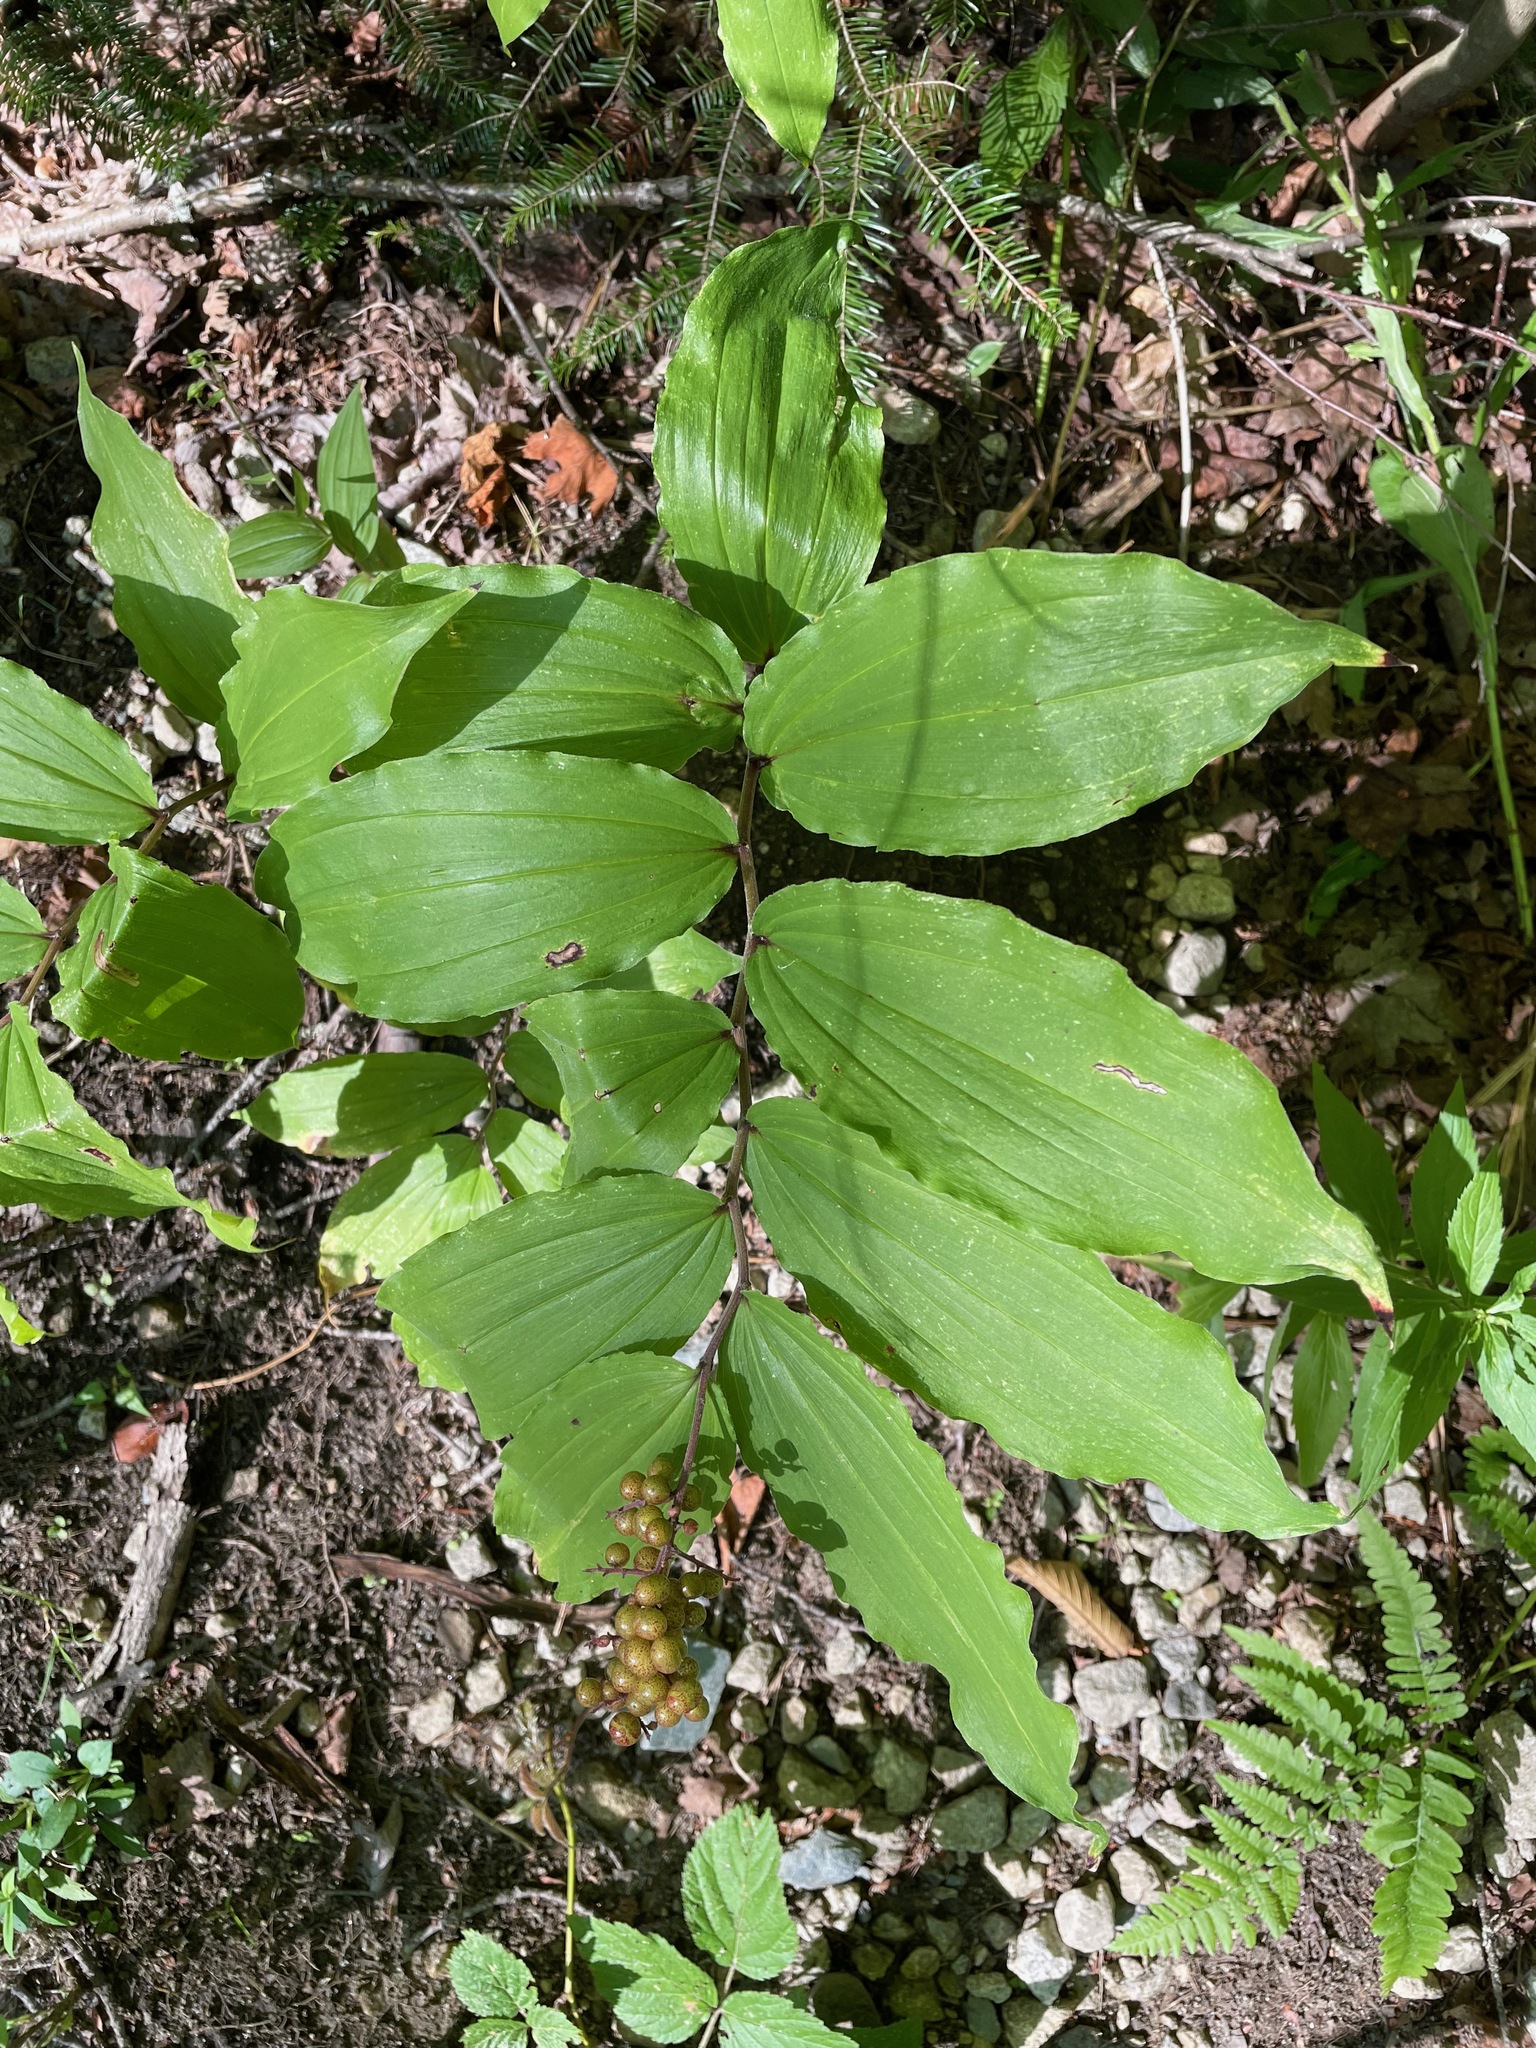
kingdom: Plantae
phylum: Tracheophyta
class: Liliopsida
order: Asparagales
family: Asparagaceae
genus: Maianthemum
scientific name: Maianthemum racemosum
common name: False spikenard
